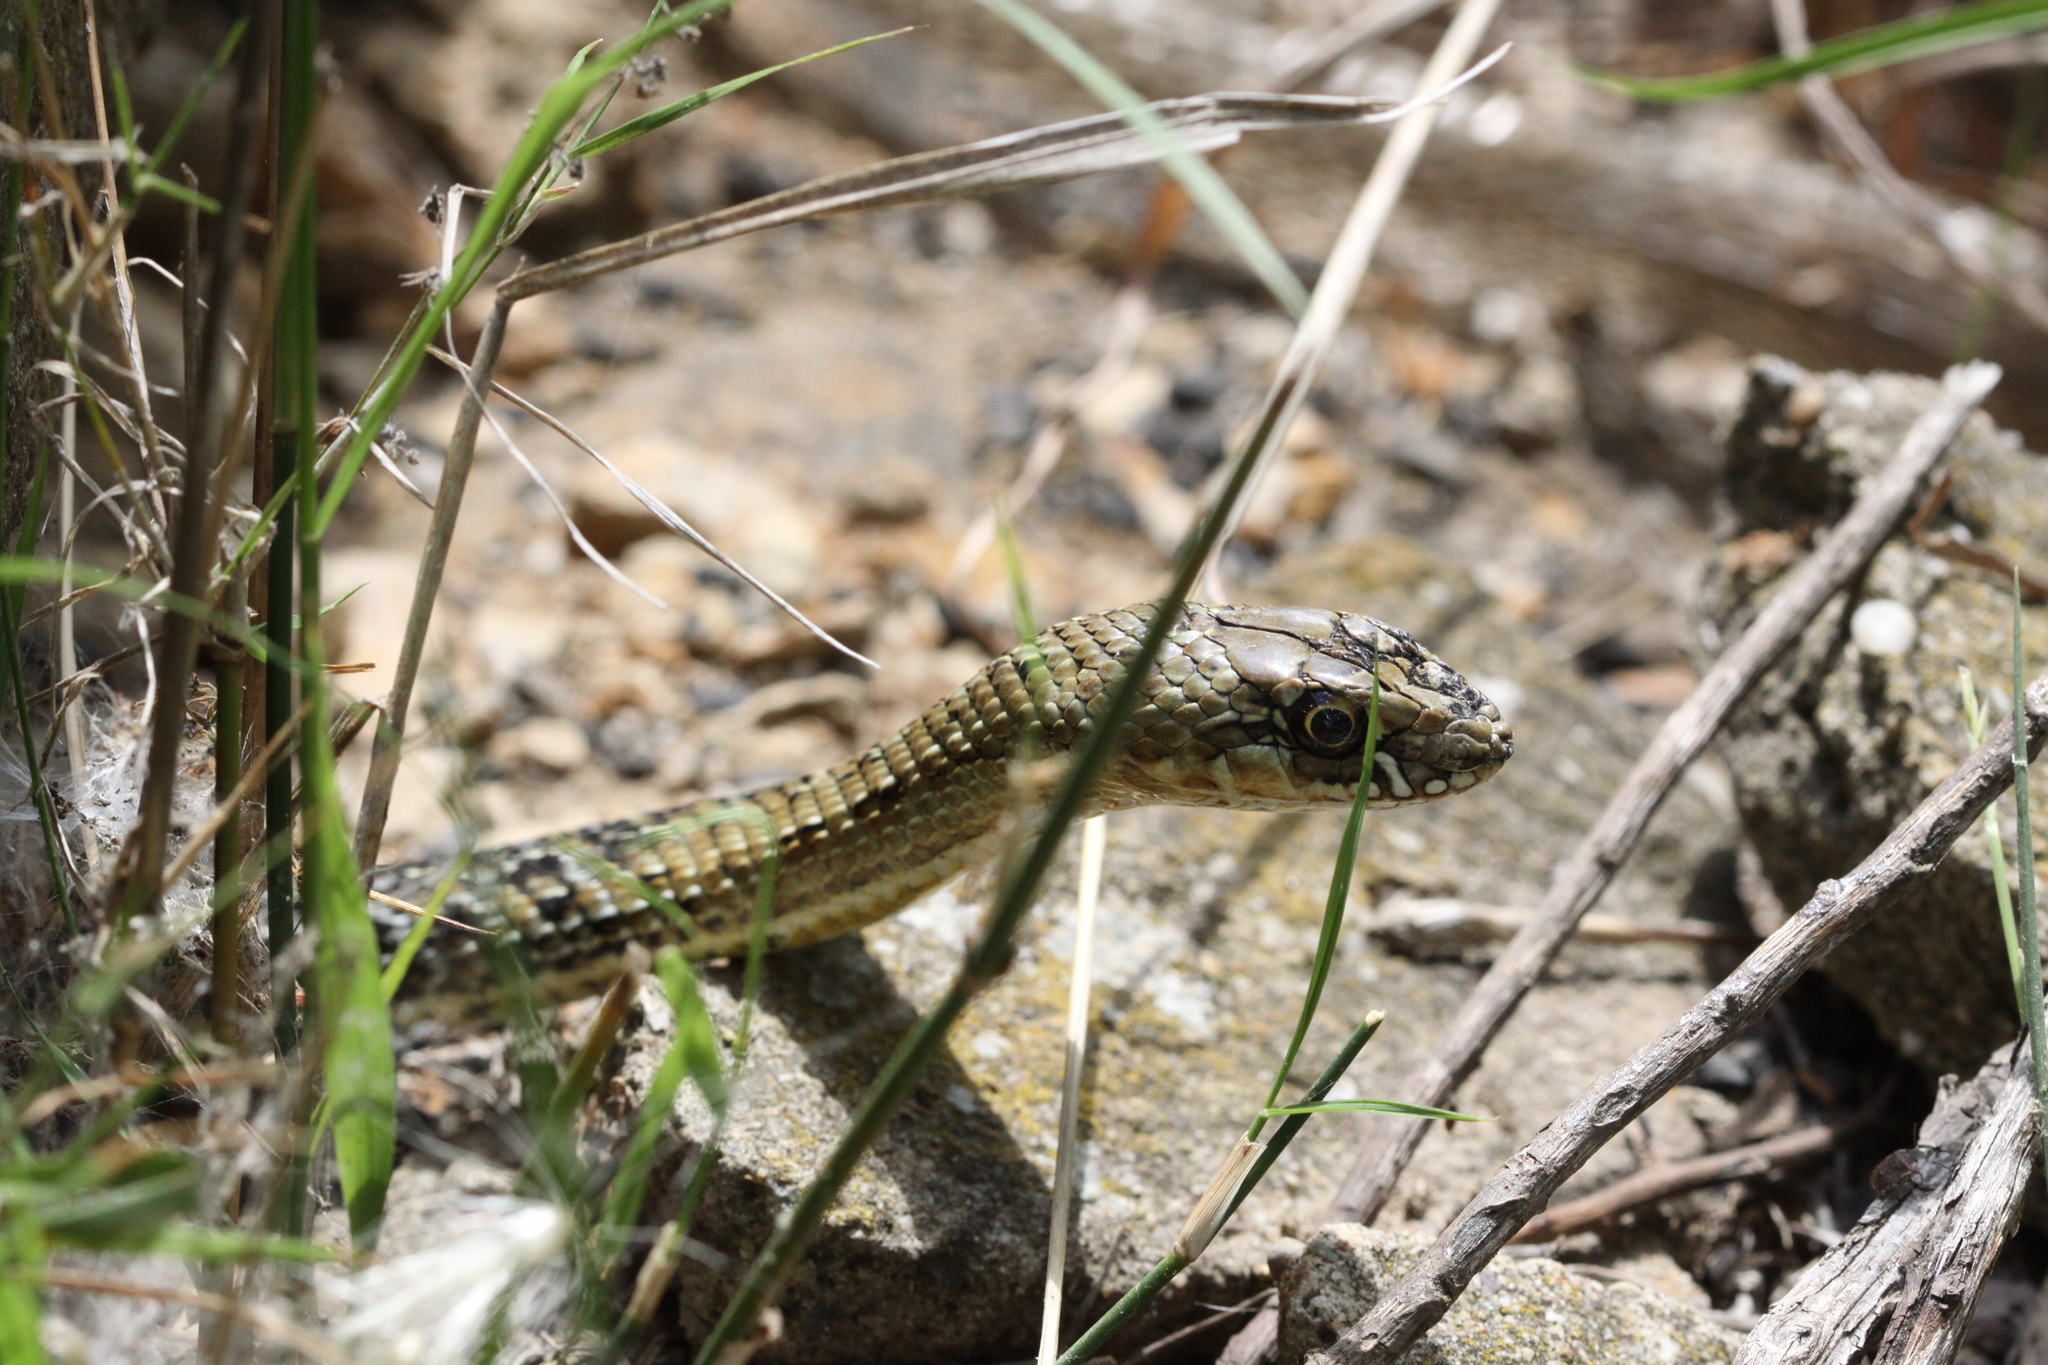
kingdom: Animalia
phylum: Chordata
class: Squamata
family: Psammophiidae
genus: Malpolon
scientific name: Malpolon monspessulanus
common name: Montpellier snake
